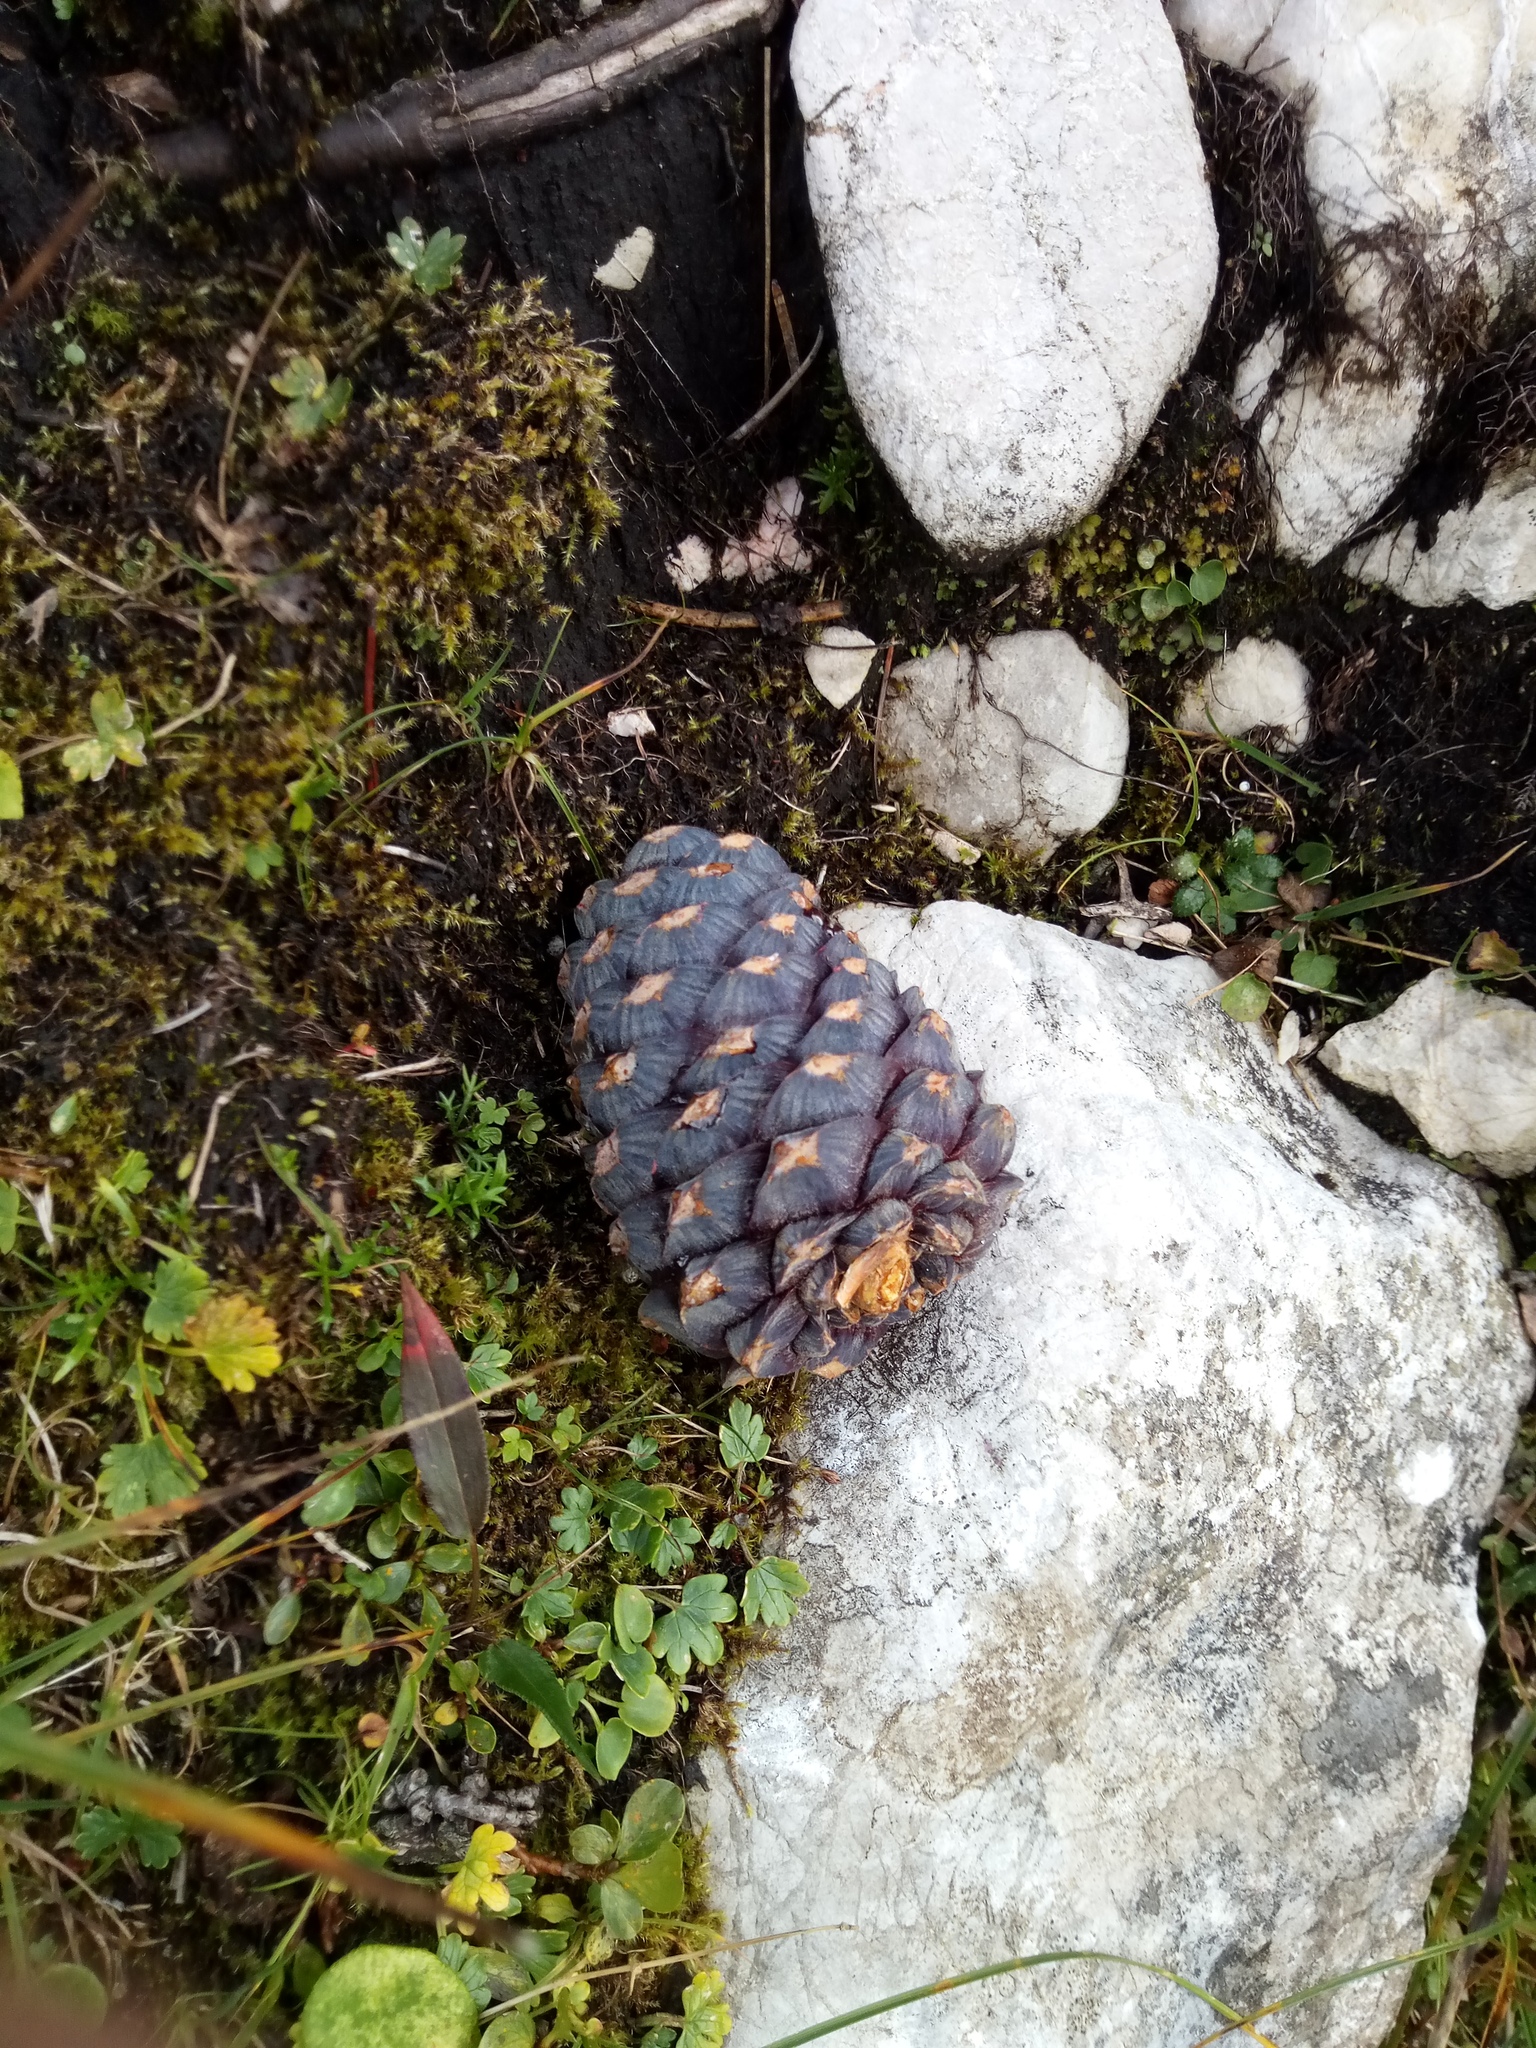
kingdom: Plantae
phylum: Tracheophyta
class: Pinopsida
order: Pinales
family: Pinaceae
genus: Pinus
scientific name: Pinus cembra
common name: Arolla pine
